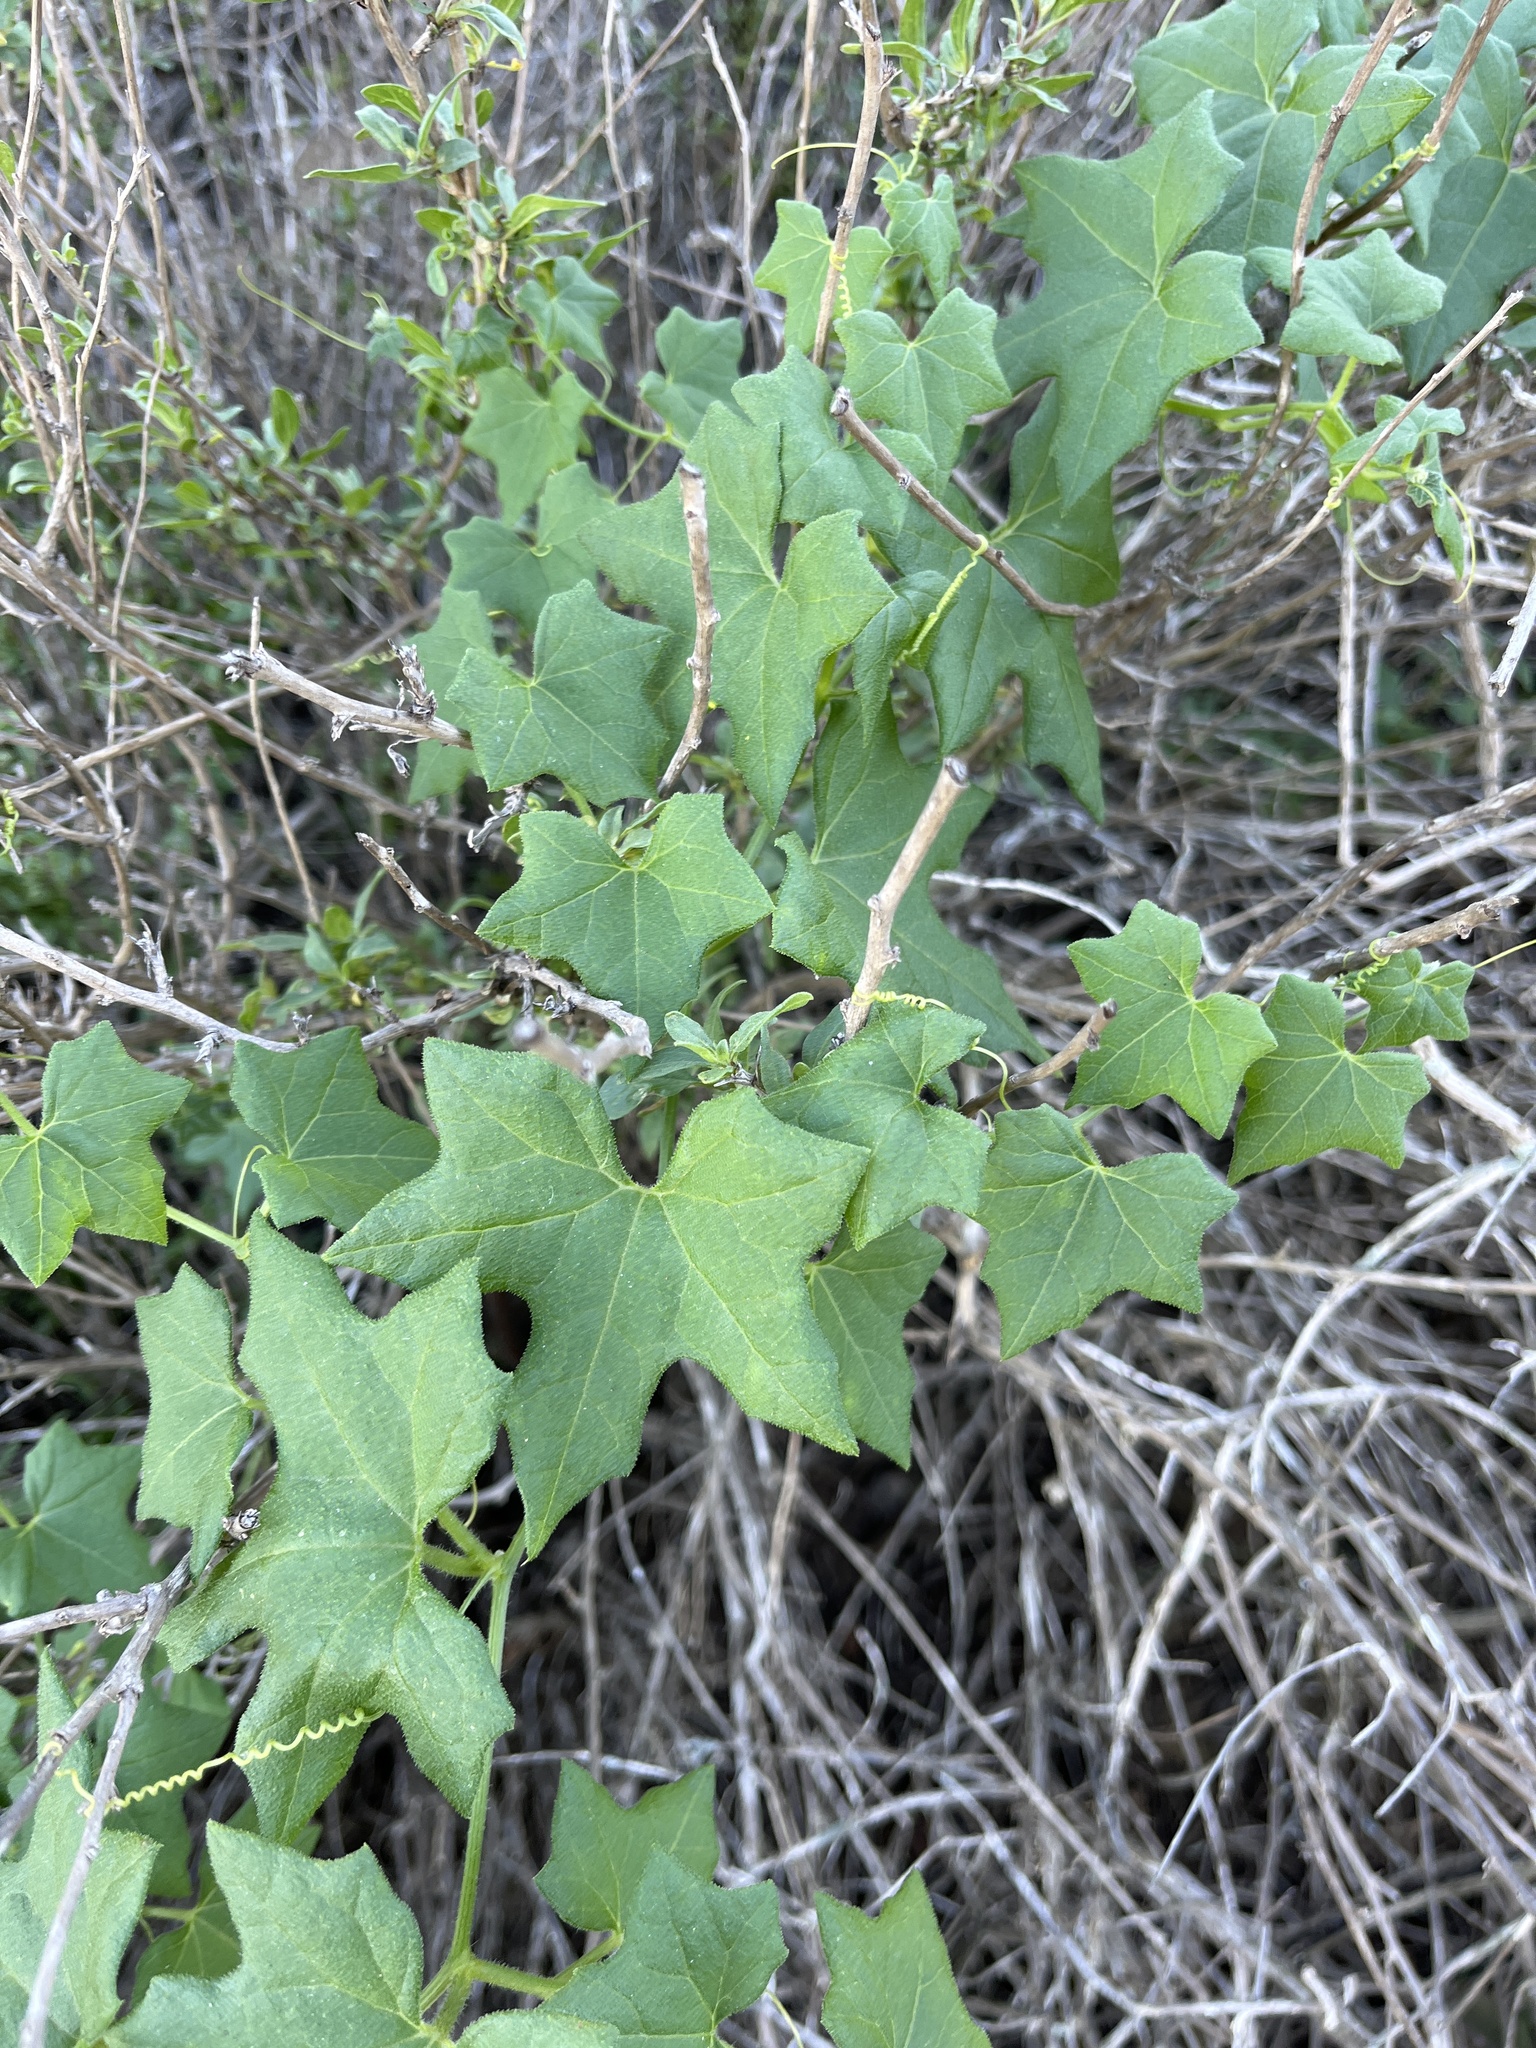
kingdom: Plantae
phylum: Tracheophyta
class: Magnoliopsida
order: Cucurbitales
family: Cucurbitaceae
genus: Marah
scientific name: Marah macrocarpa
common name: Cucamonga manroot
